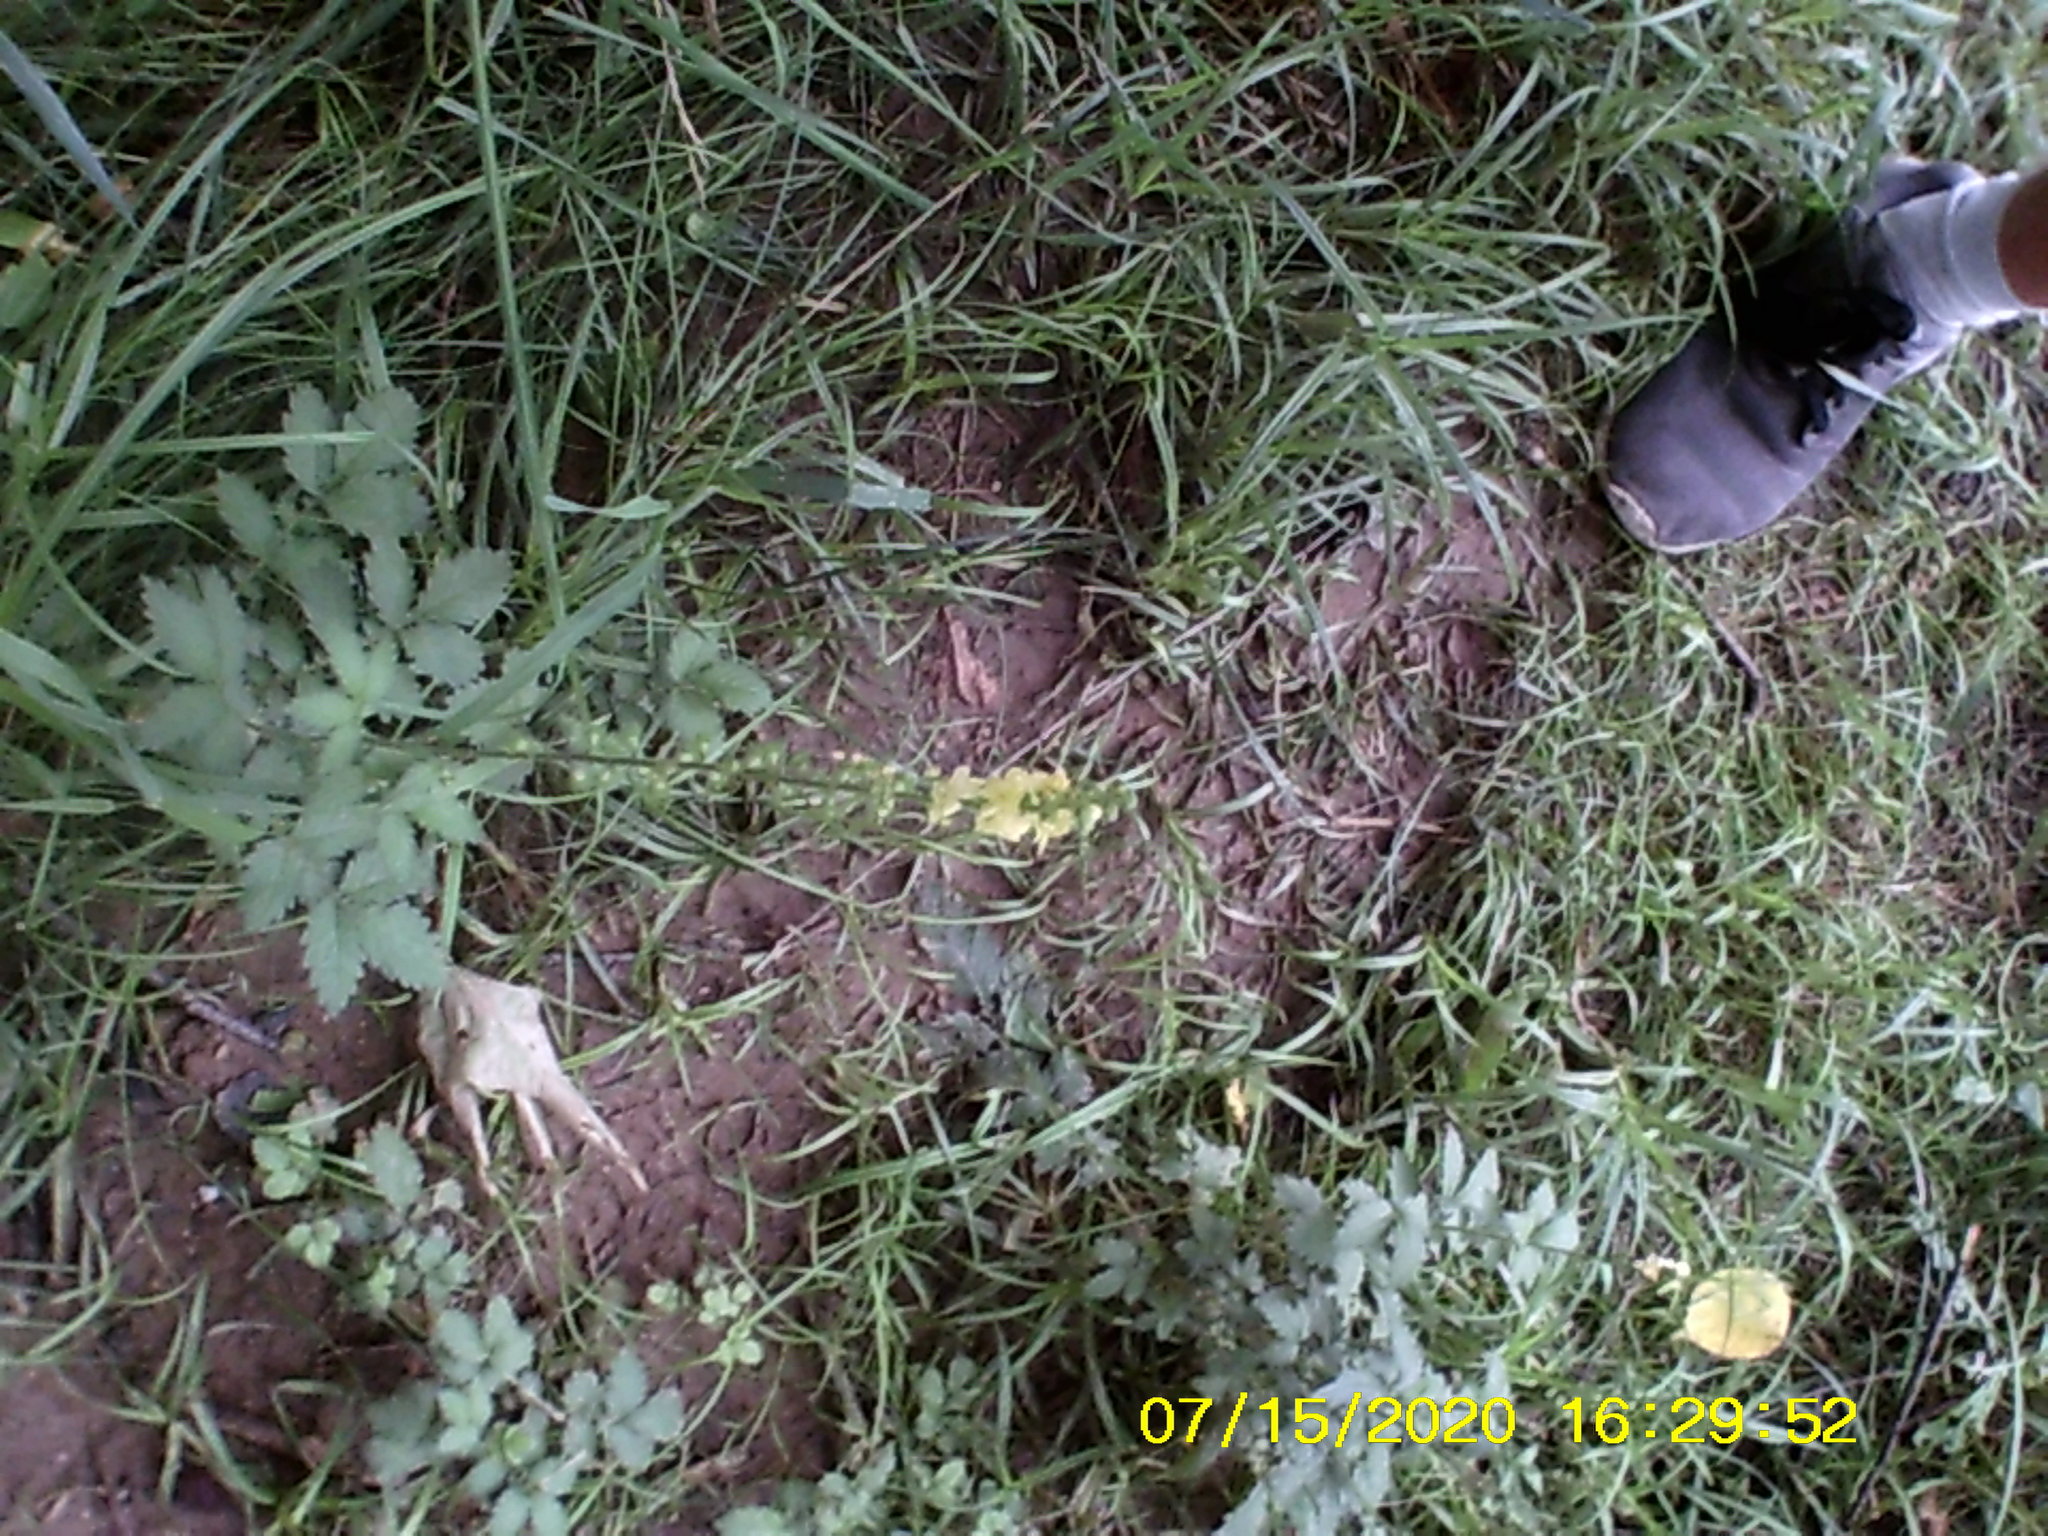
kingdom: Plantae
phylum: Tracheophyta
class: Magnoliopsida
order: Rosales
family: Rosaceae
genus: Agrimonia
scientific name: Agrimonia eupatoria
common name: Agrimony
